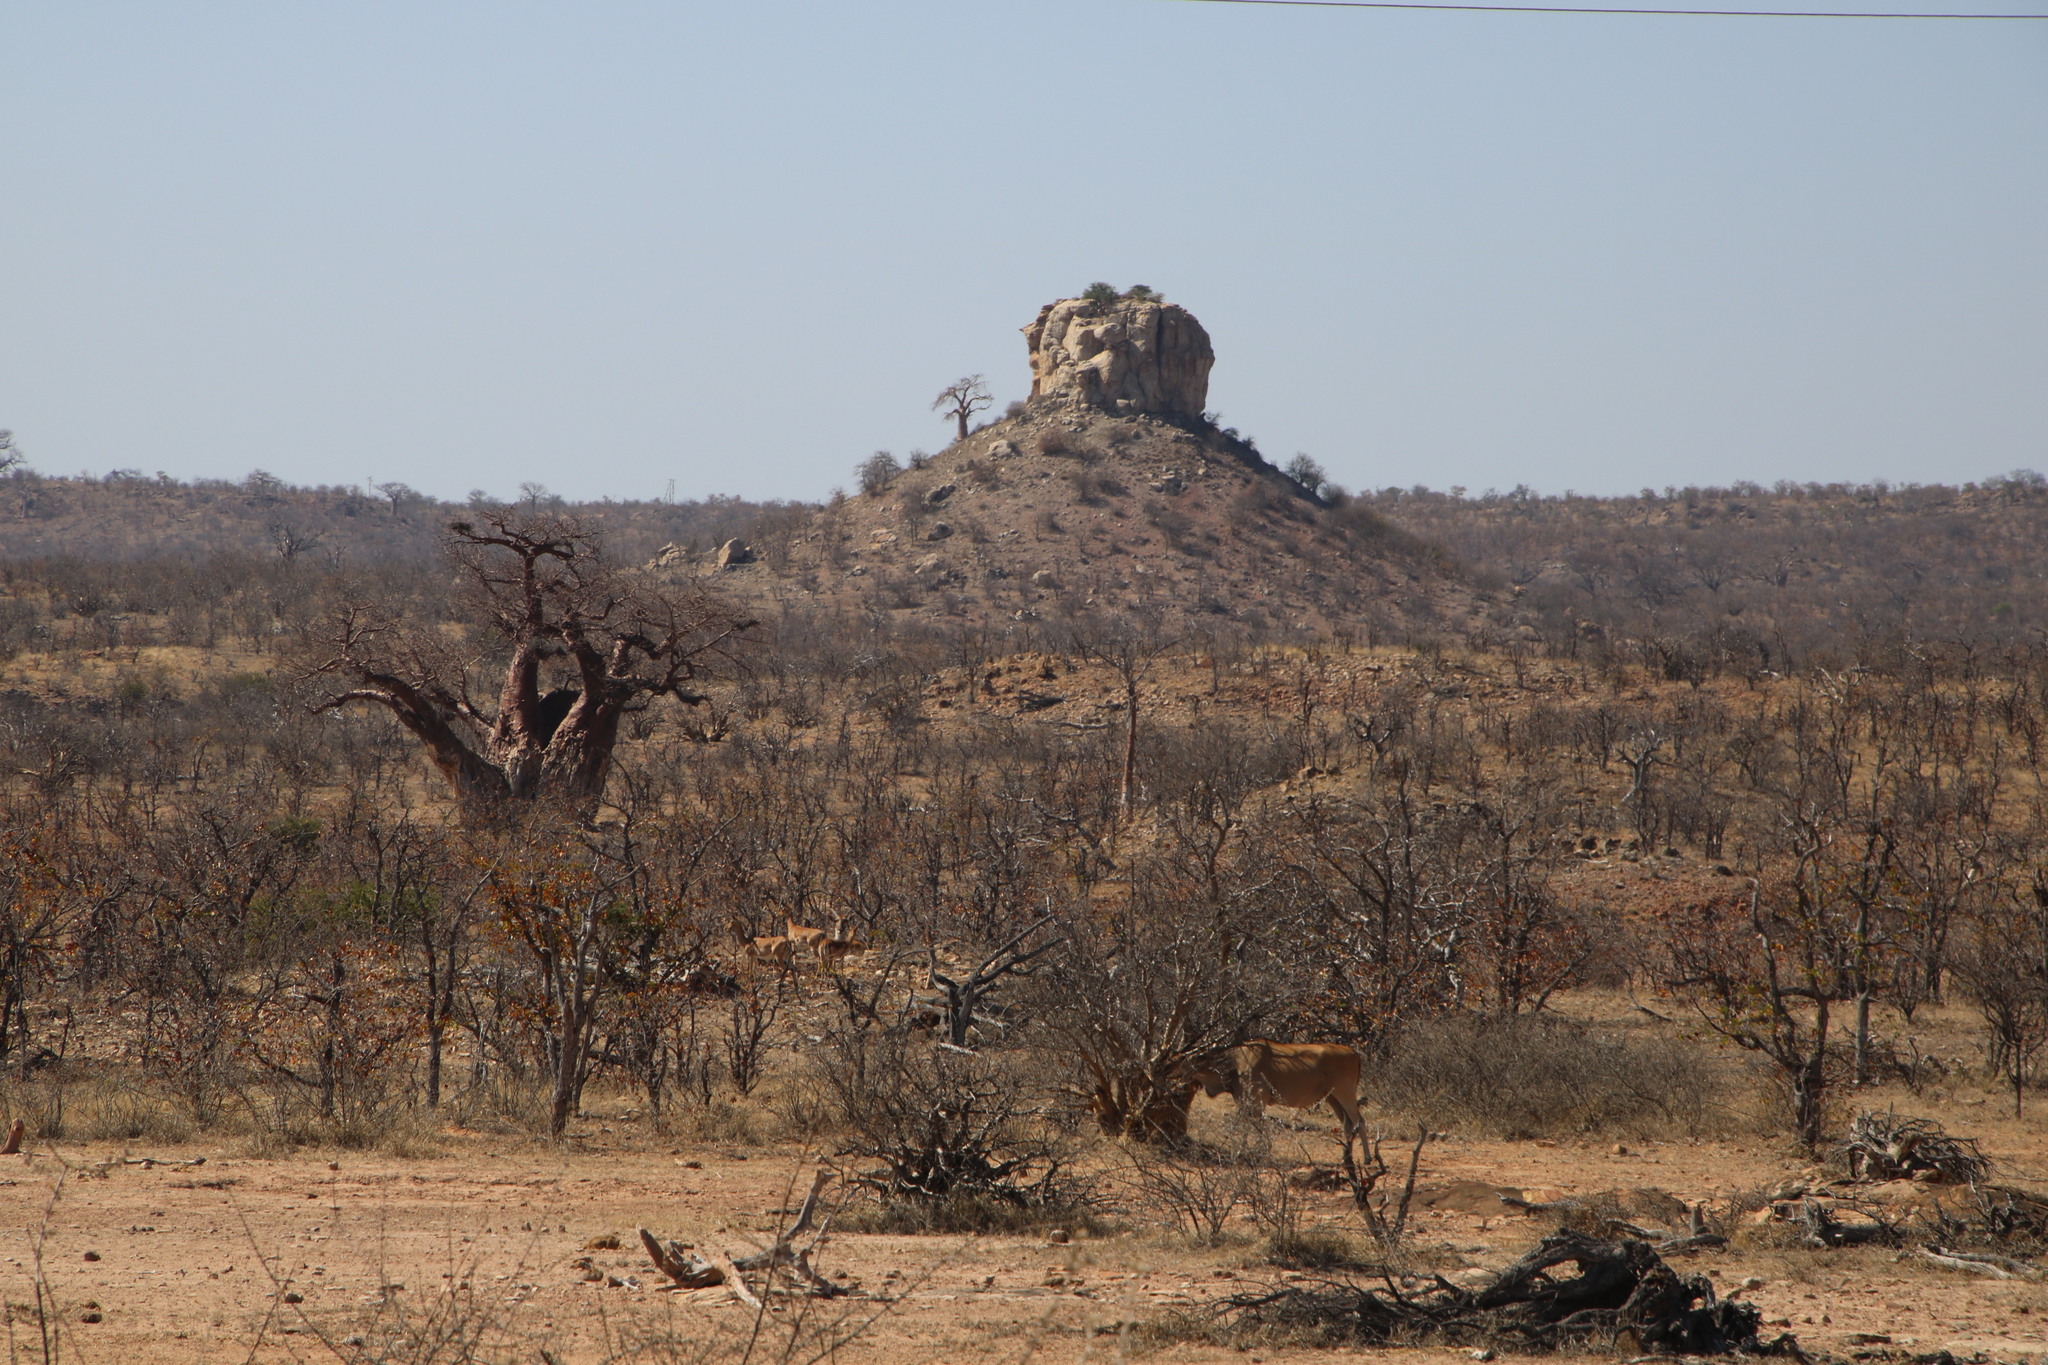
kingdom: Plantae
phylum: Tracheophyta
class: Magnoliopsida
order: Malvales
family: Malvaceae
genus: Adansonia
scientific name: Adansonia digitata
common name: Dead-rat-tree
